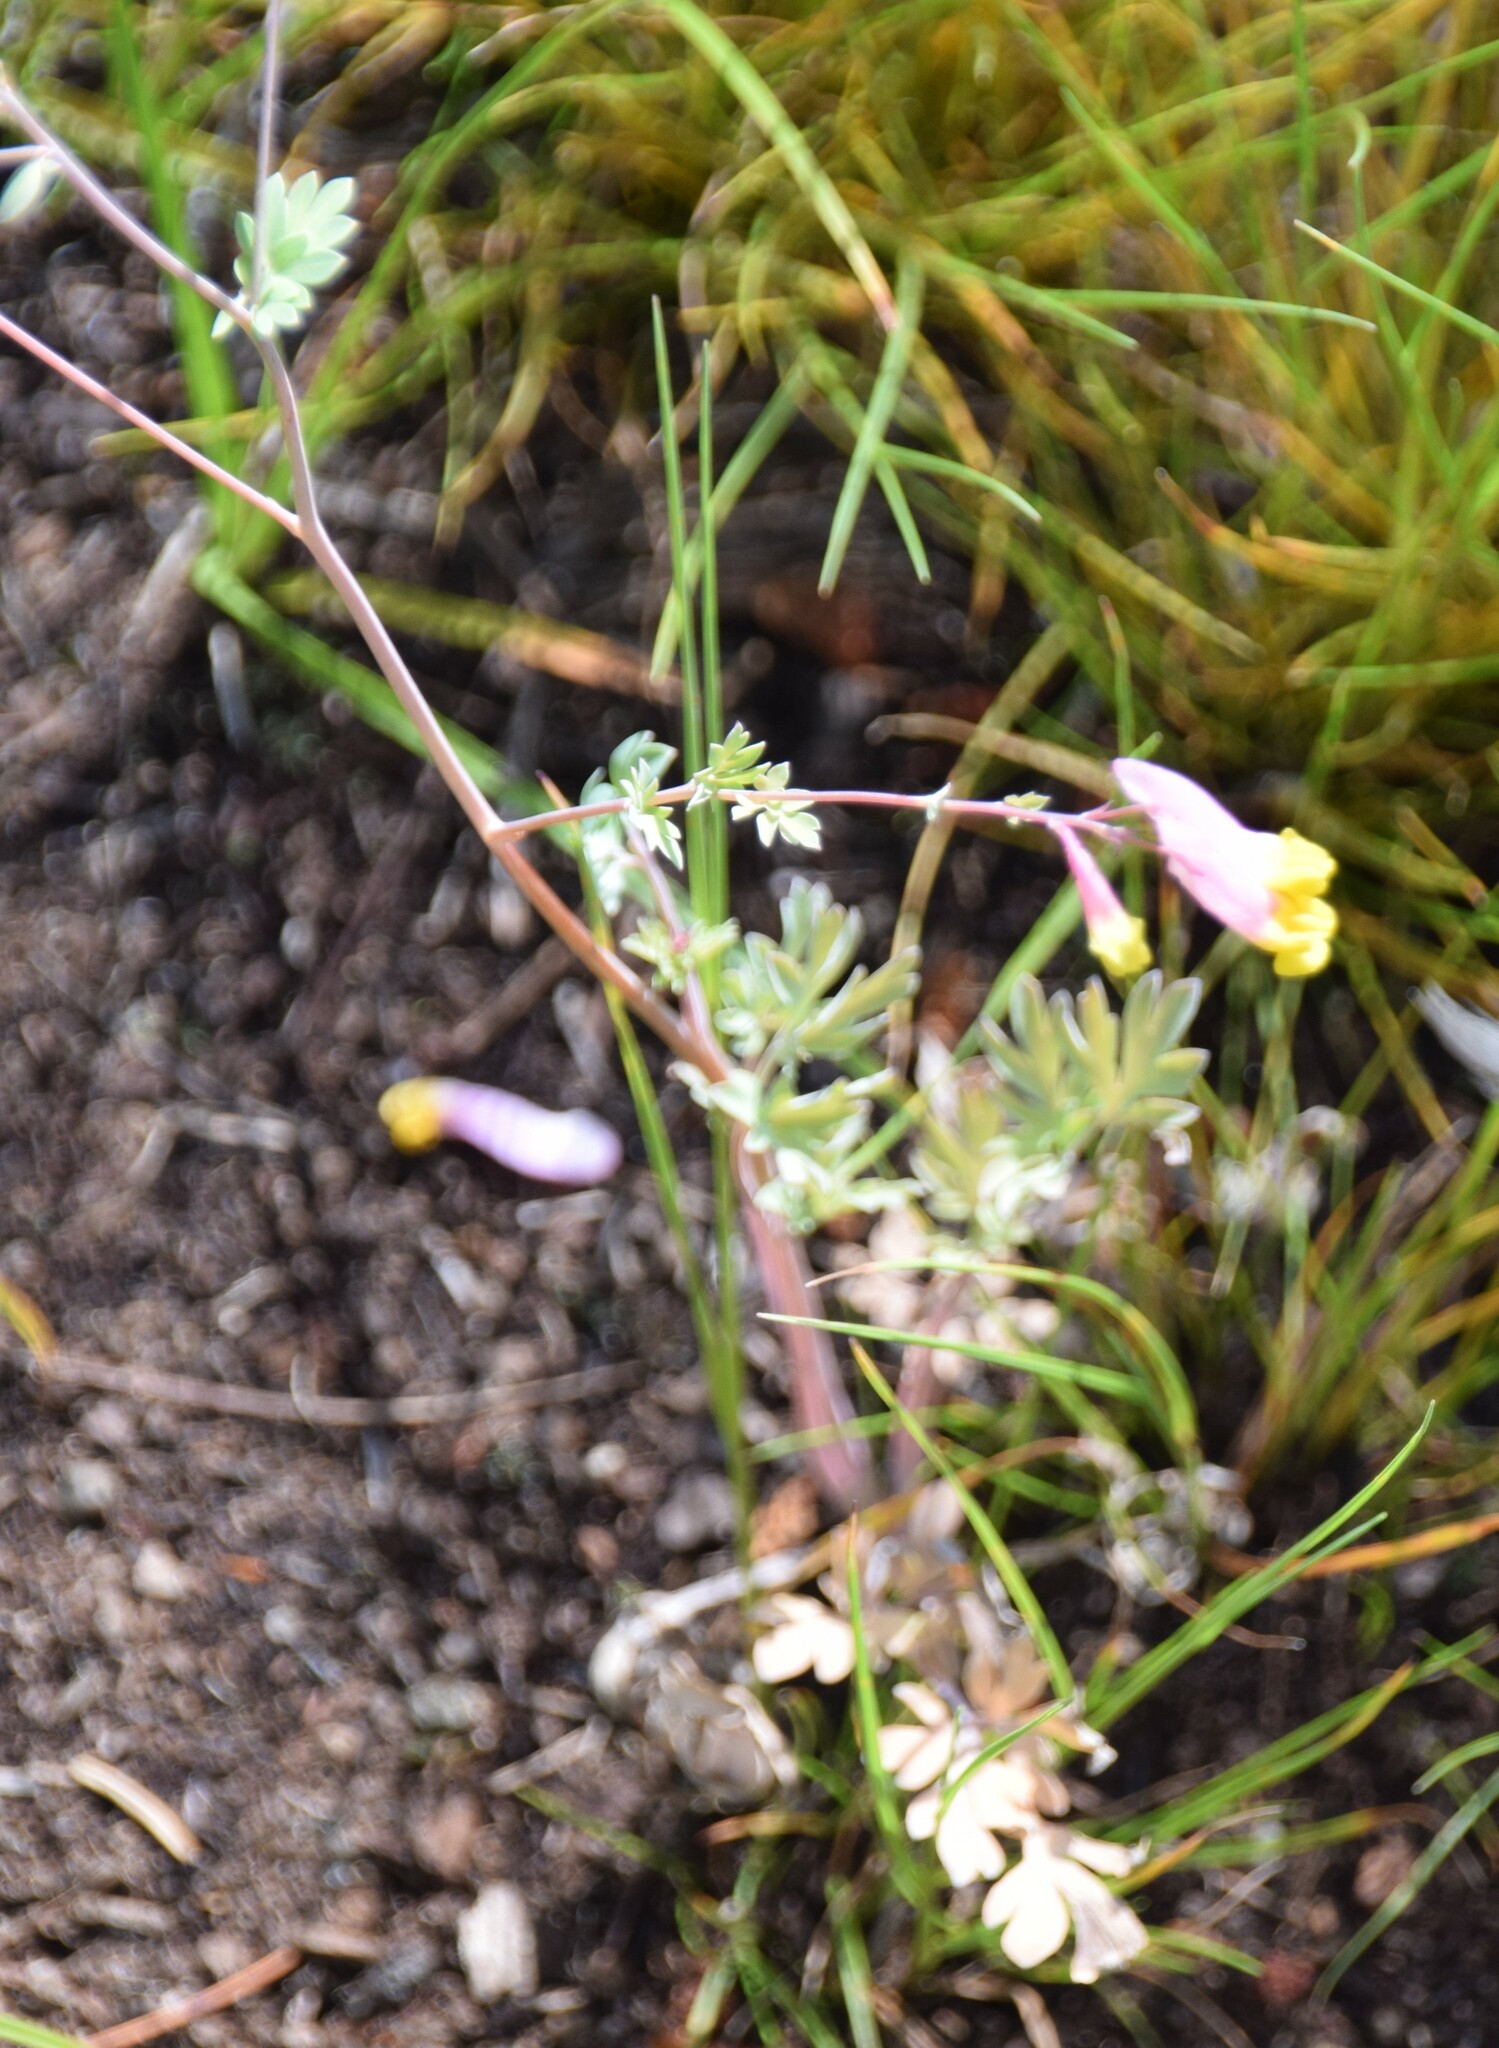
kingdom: Plantae
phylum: Tracheophyta
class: Magnoliopsida
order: Ranunculales
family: Papaveraceae
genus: Capnoides
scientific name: Capnoides sempervirens
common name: Rock harlequin
